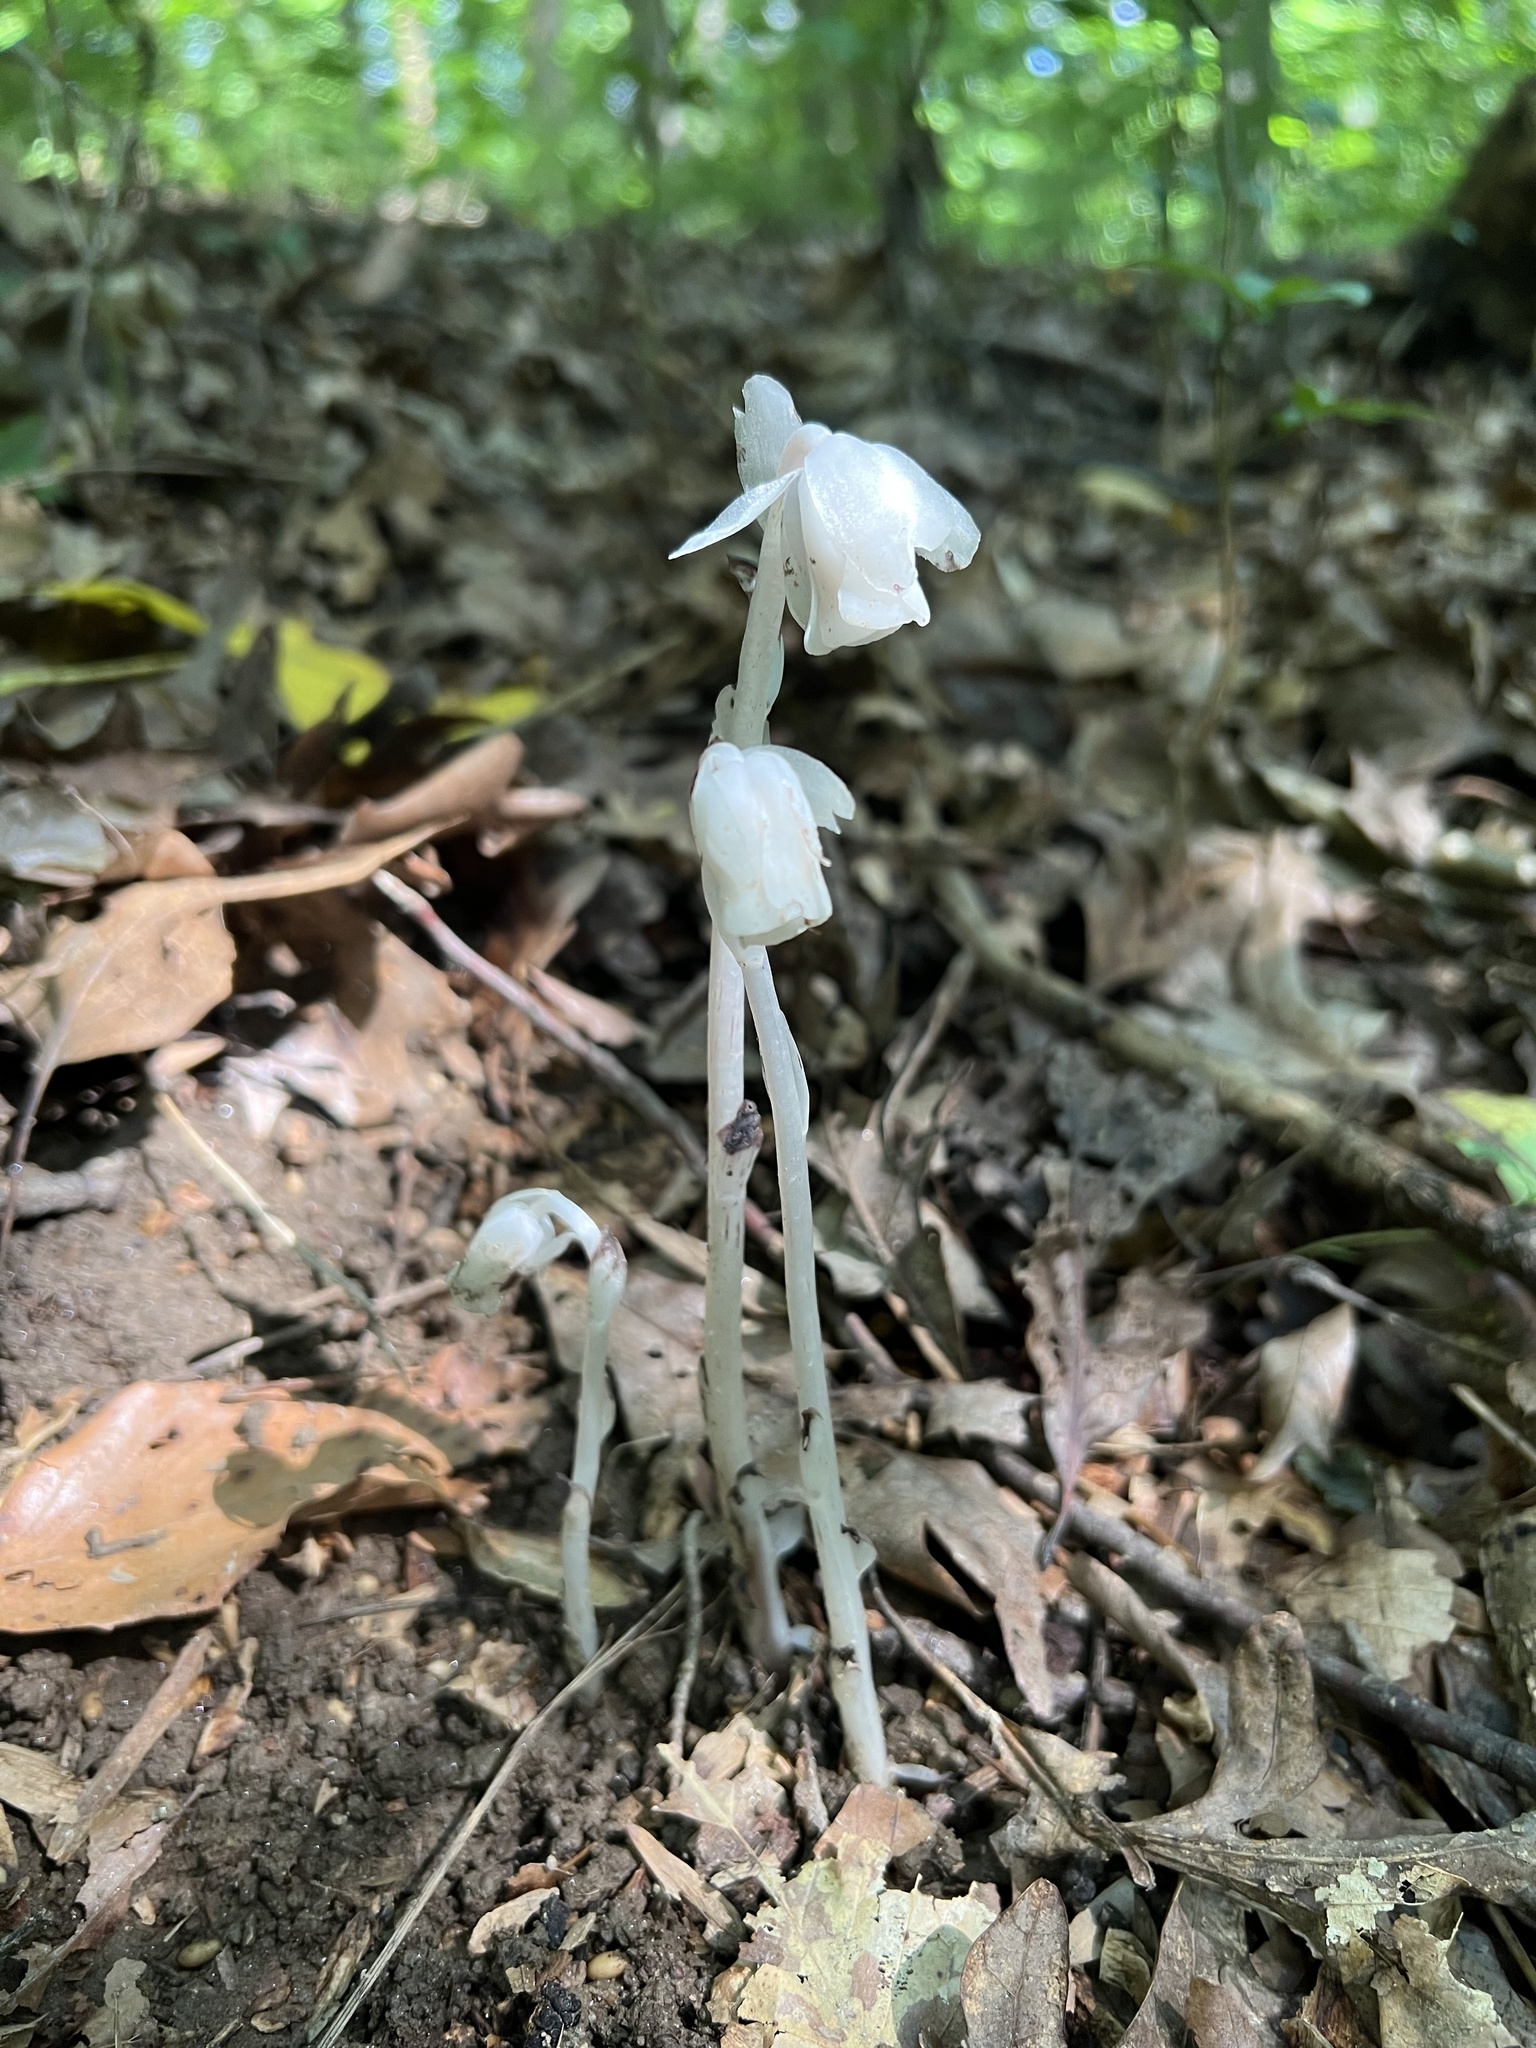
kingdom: Plantae
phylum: Tracheophyta
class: Magnoliopsida
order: Ericales
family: Ericaceae
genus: Monotropa
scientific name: Monotropa uniflora
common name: Convulsion root
